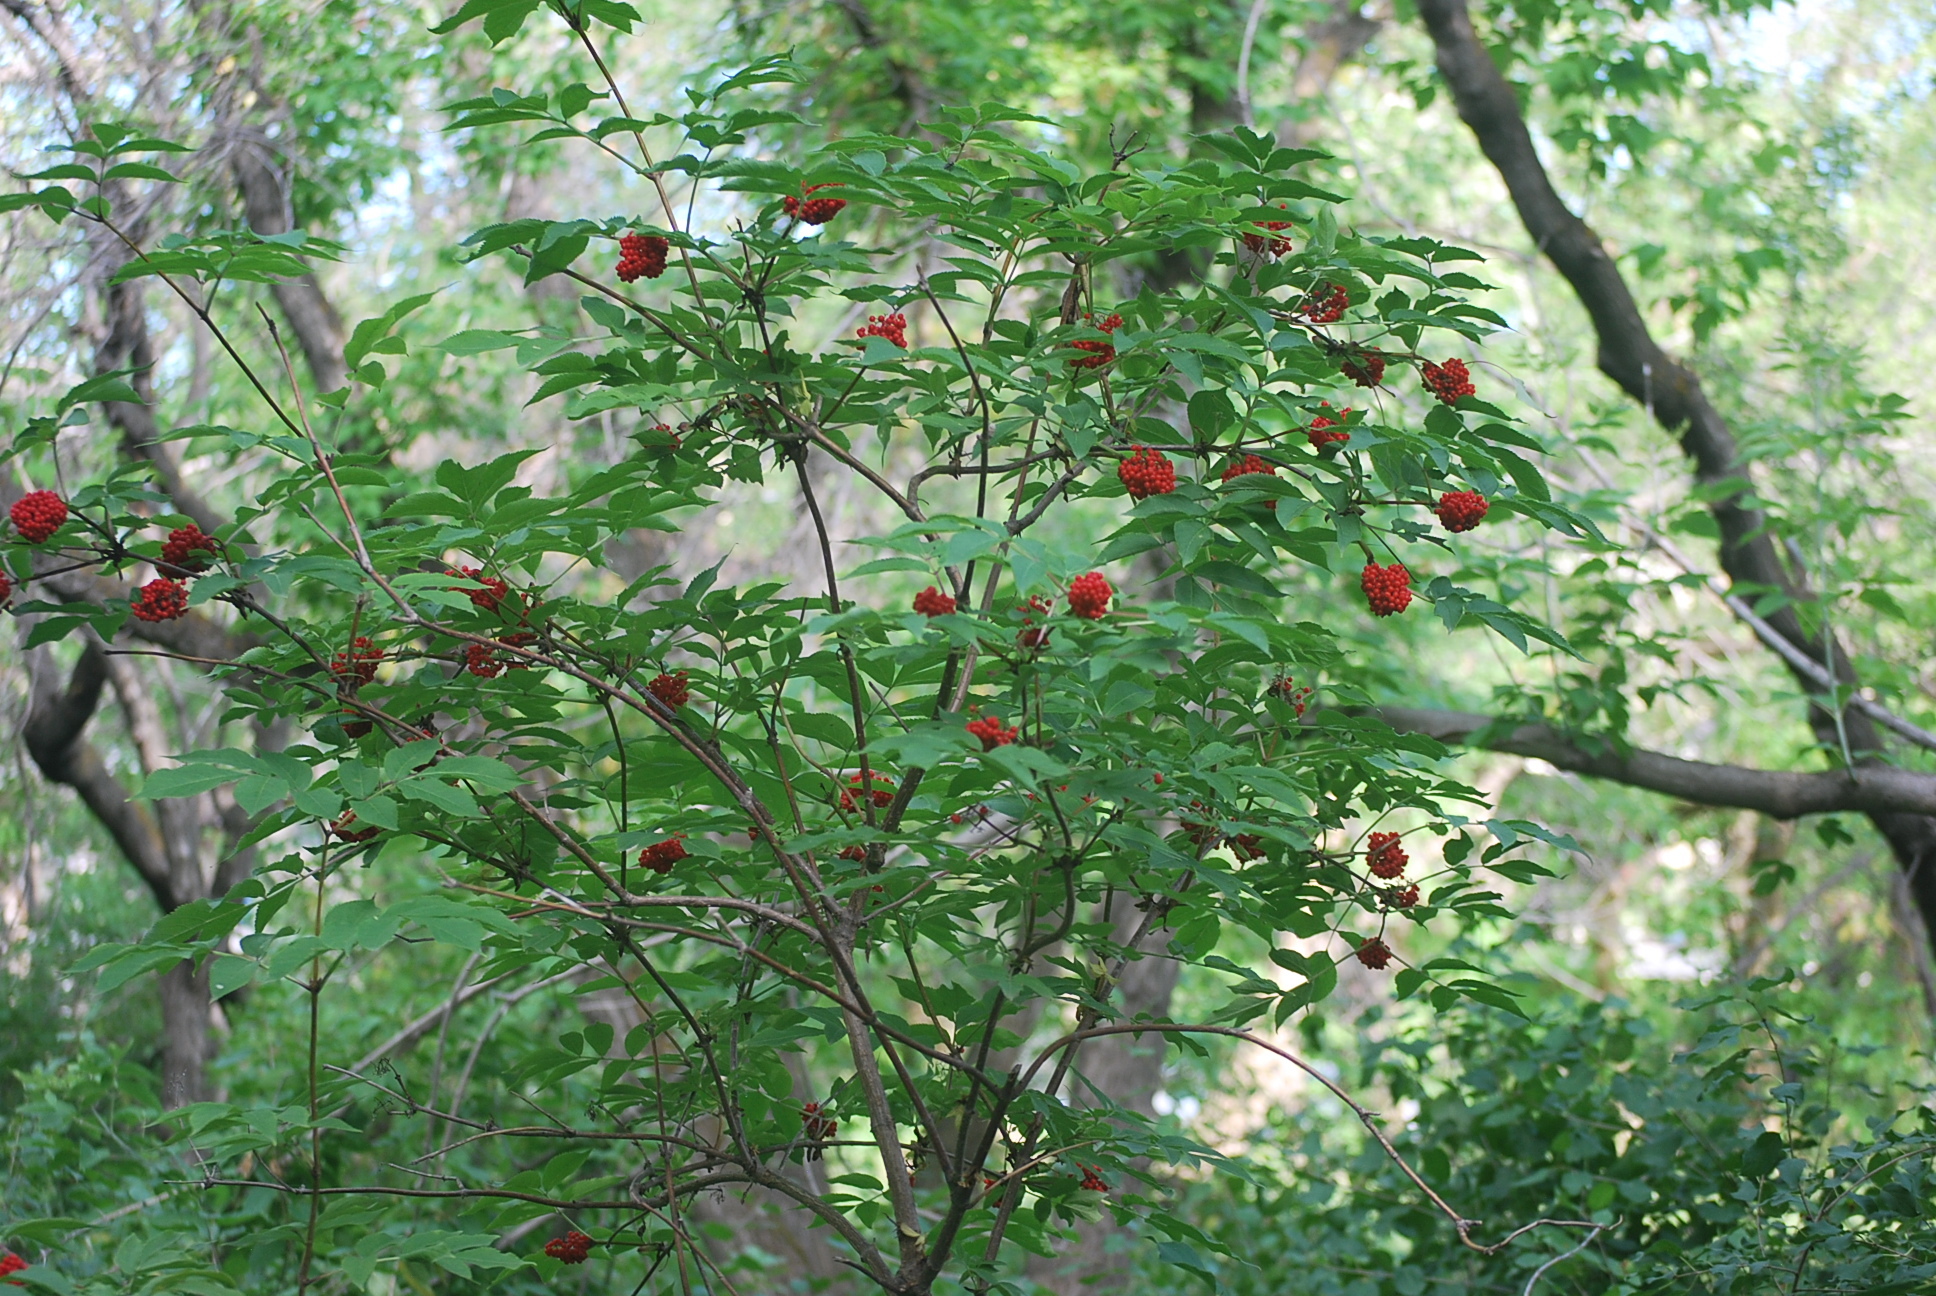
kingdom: Plantae
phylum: Tracheophyta
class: Magnoliopsida
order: Dipsacales
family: Viburnaceae
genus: Sambucus
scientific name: Sambucus racemosa
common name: Red-berried elder
